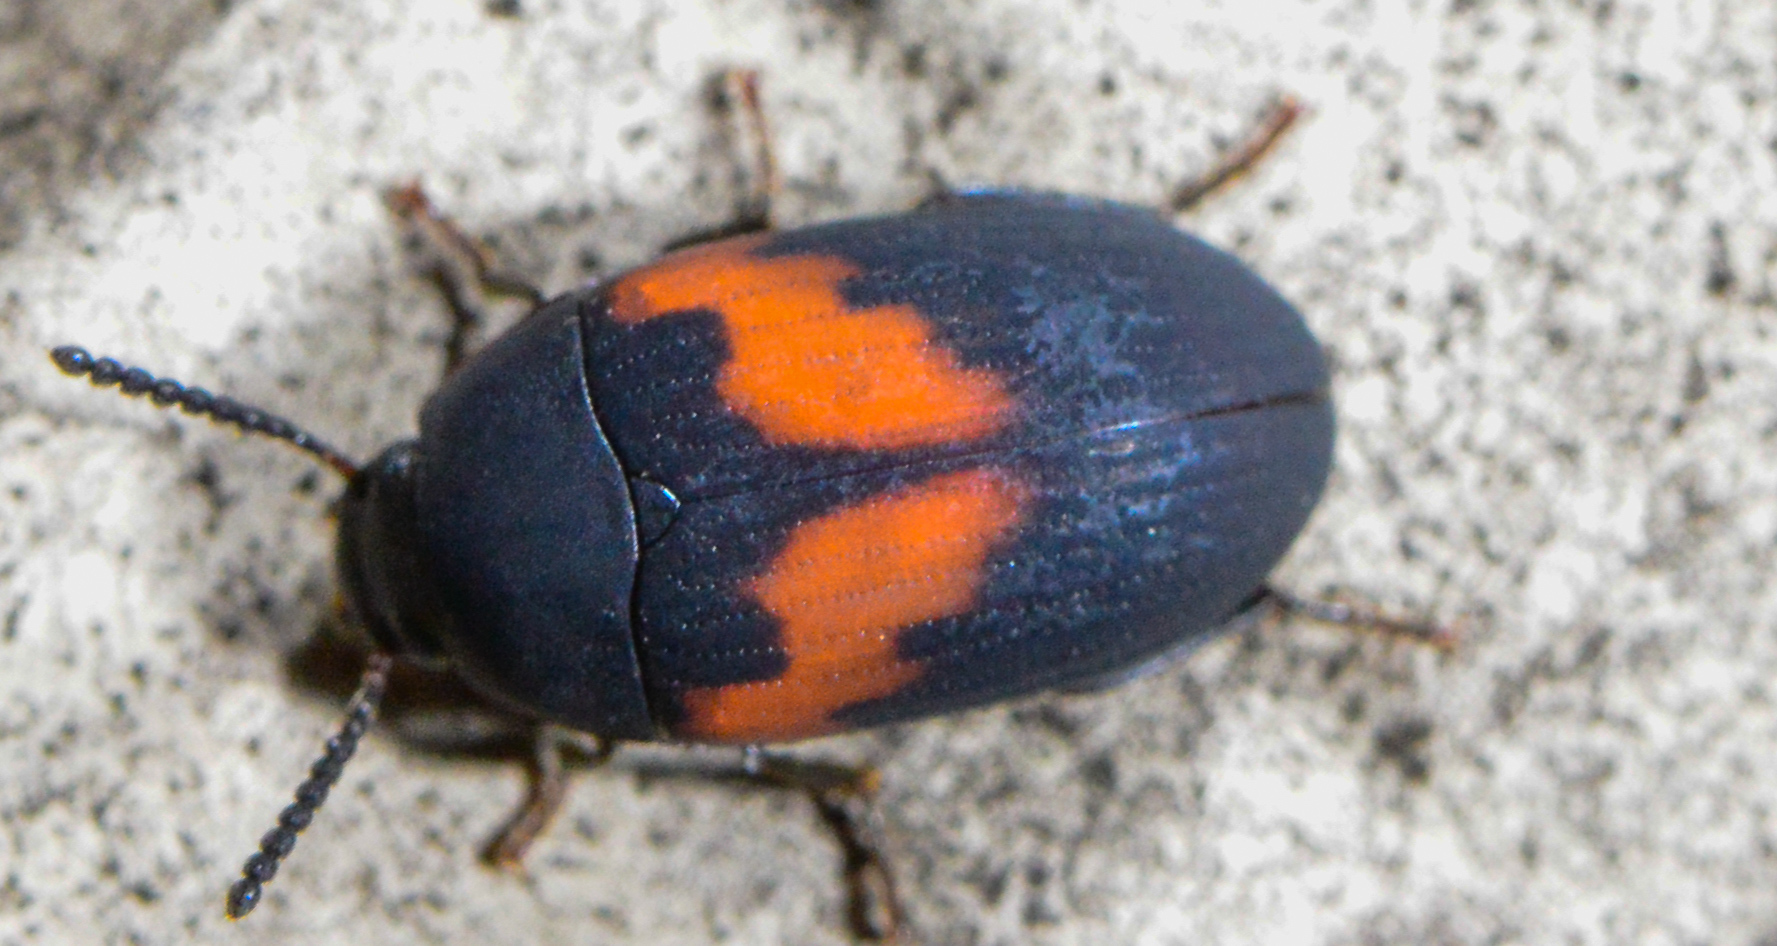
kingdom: Animalia
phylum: Arthropoda
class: Insecta
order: Coleoptera
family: Tenebrionidae
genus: Platydema
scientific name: Platydema elliptica
